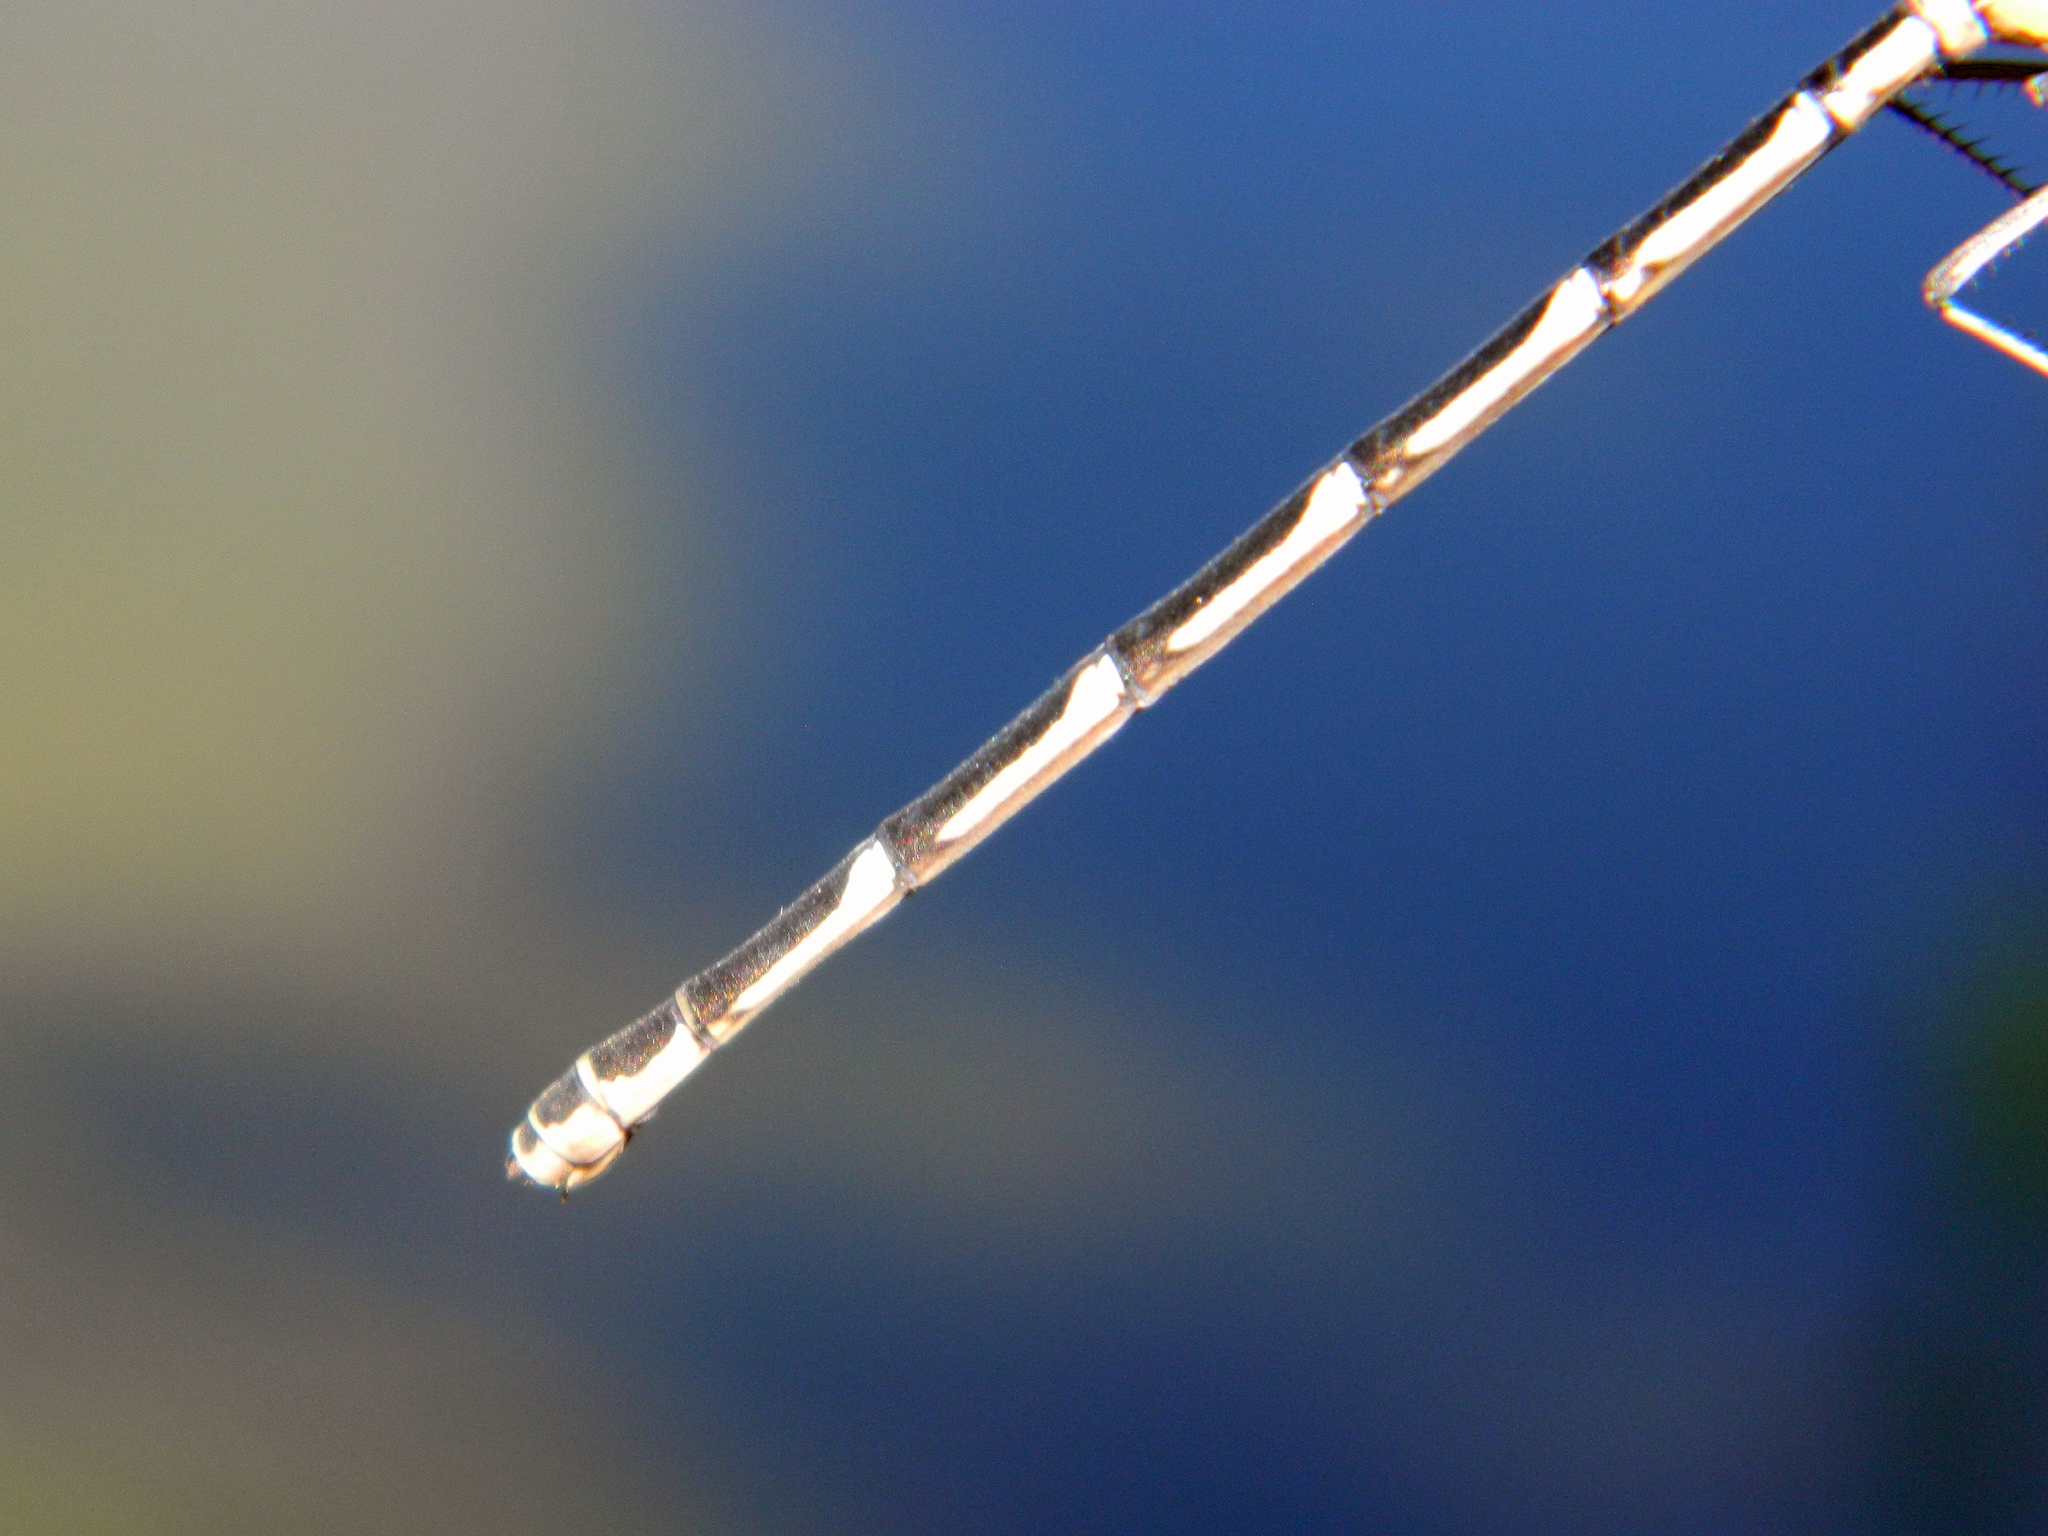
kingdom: Animalia
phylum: Arthropoda
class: Insecta
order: Odonata
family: Coenagrionidae
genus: Chromagrion
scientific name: Chromagrion conditum
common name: Aurora damsel
